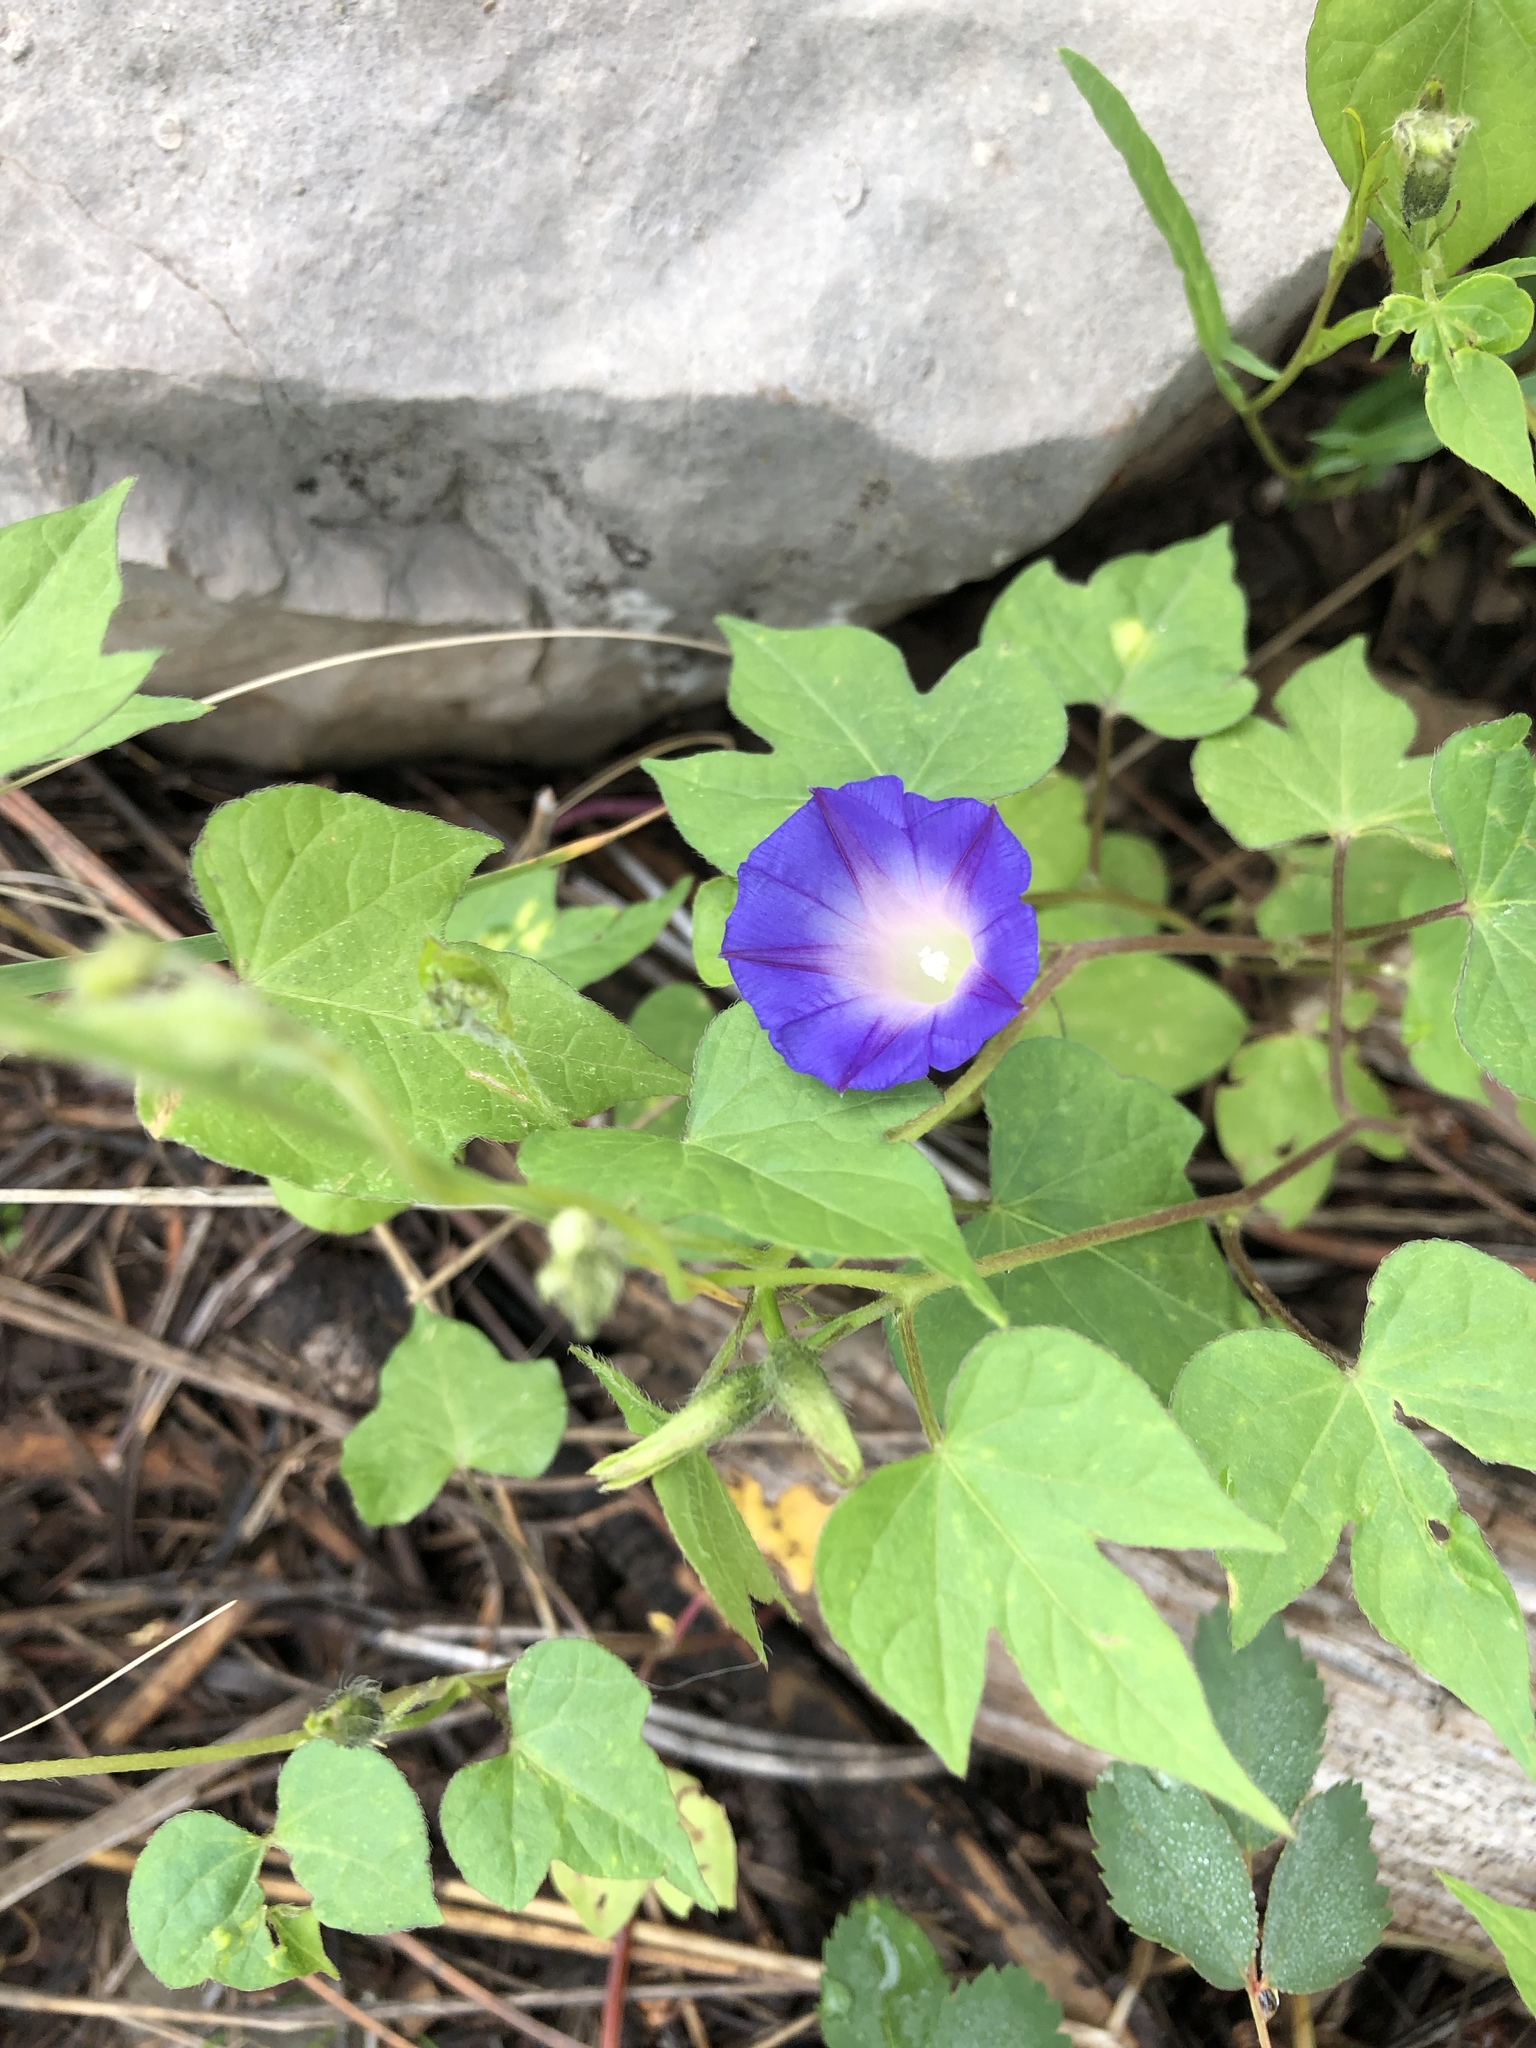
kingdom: Plantae
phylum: Tracheophyta
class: Magnoliopsida
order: Solanales
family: Convolvulaceae
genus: Ipomoea
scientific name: Ipomoea purpurea
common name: Common morning-glory
